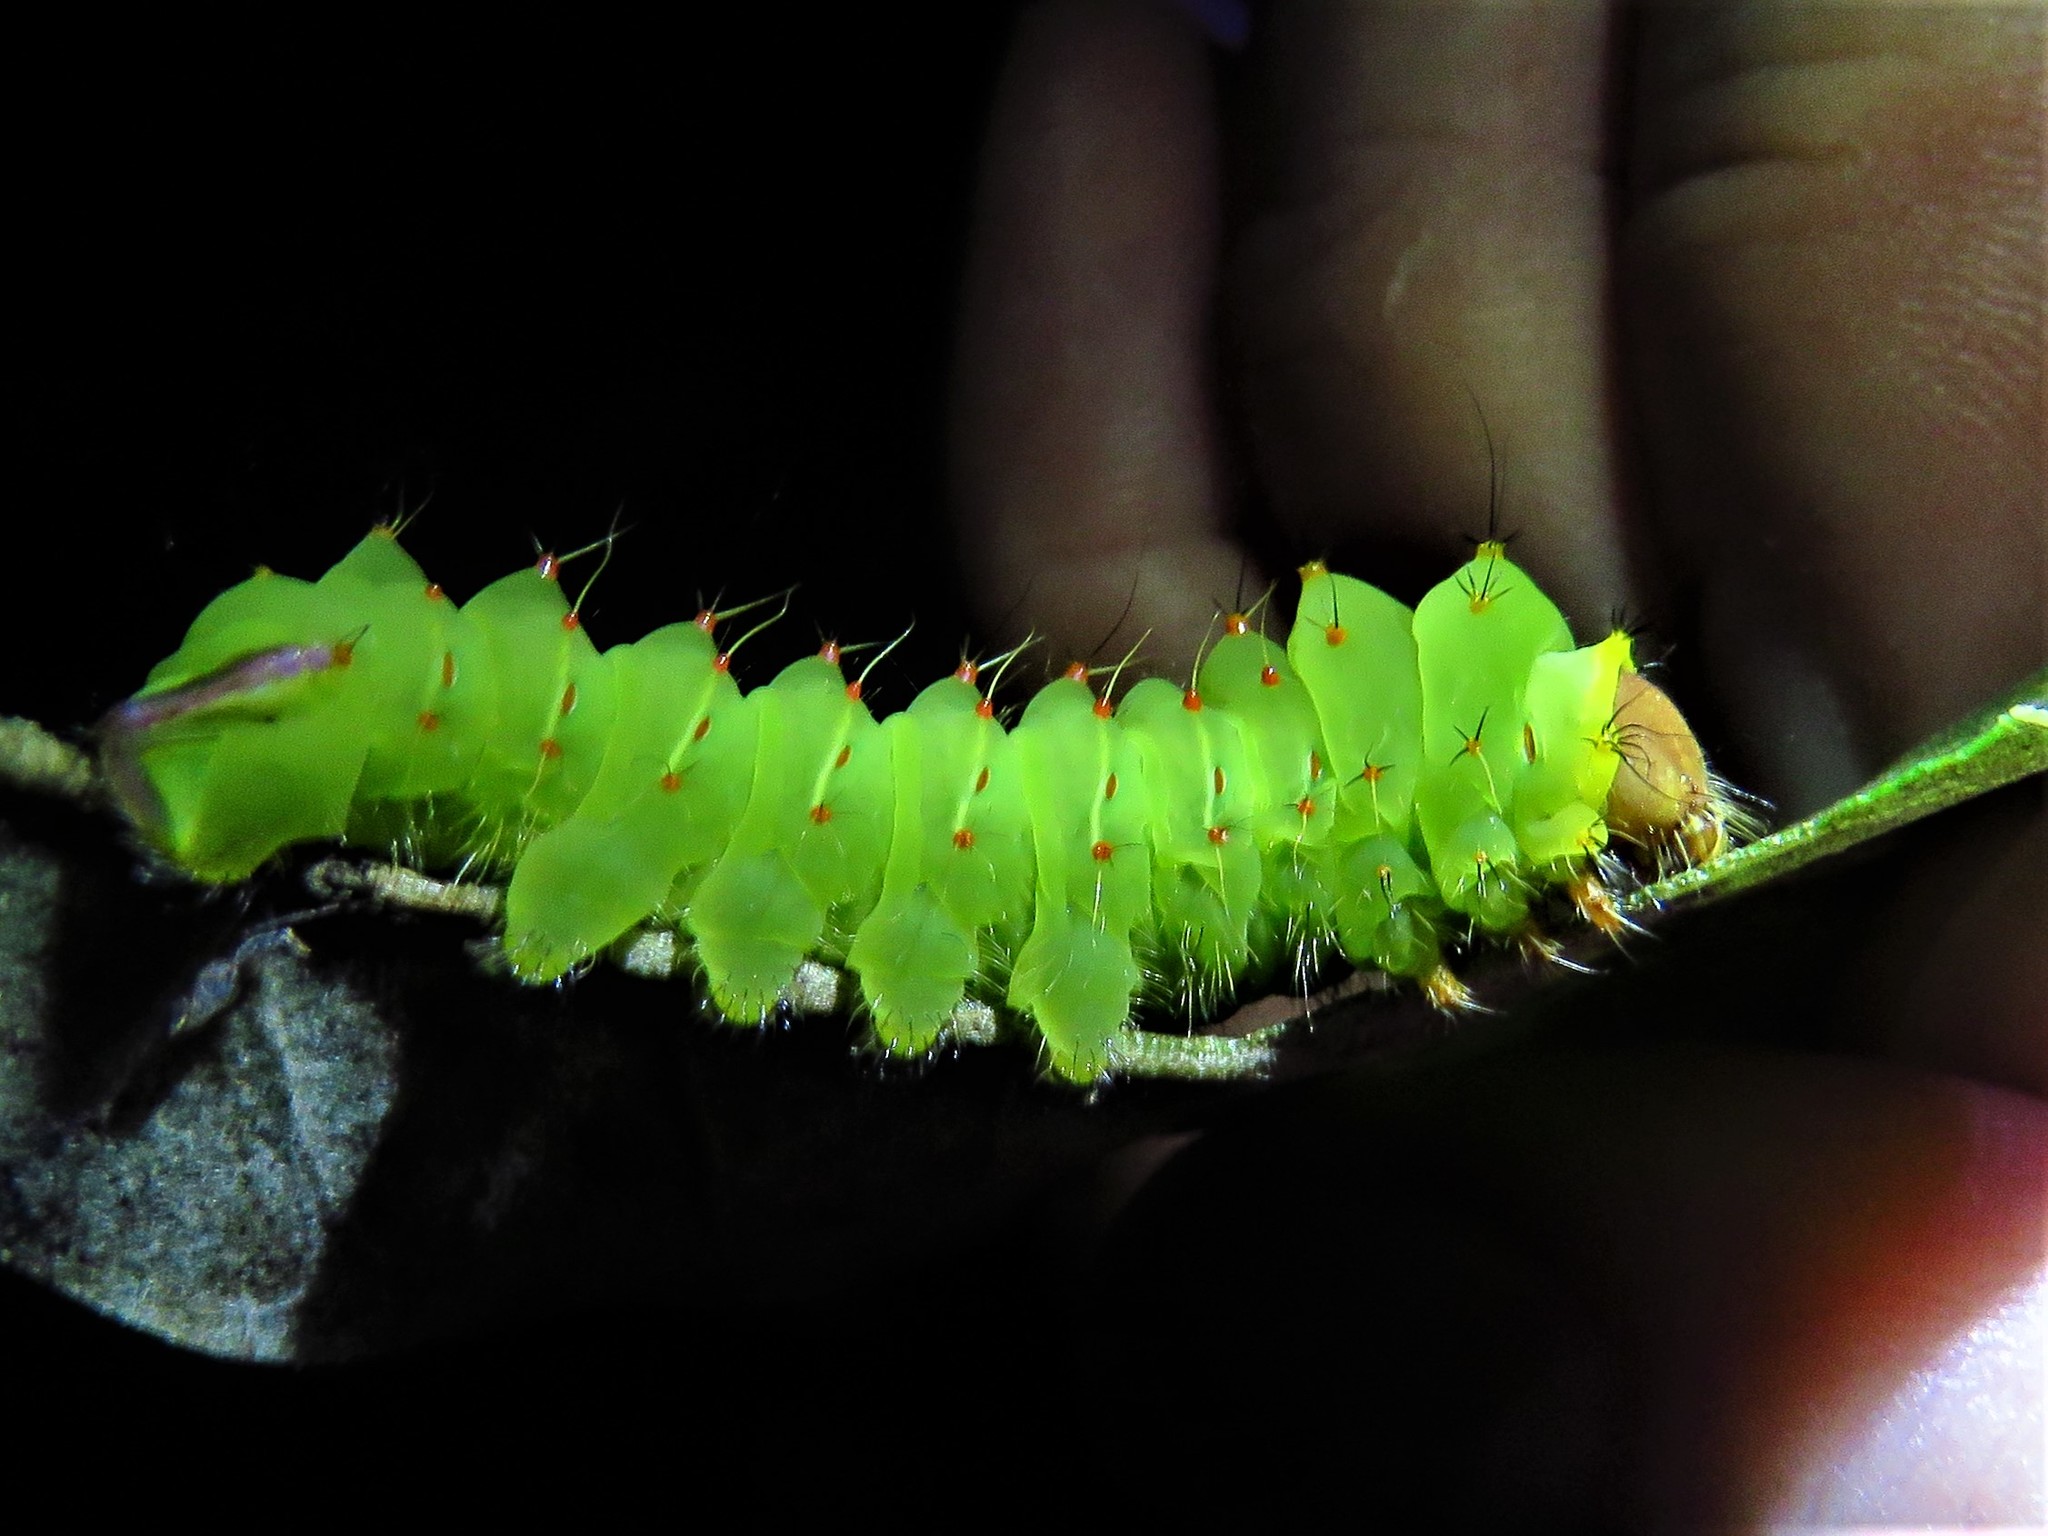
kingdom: Animalia
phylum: Arthropoda
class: Insecta
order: Lepidoptera
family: Saturniidae
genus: Antheraea
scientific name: Antheraea polyphemus
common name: Polyphemus moth
